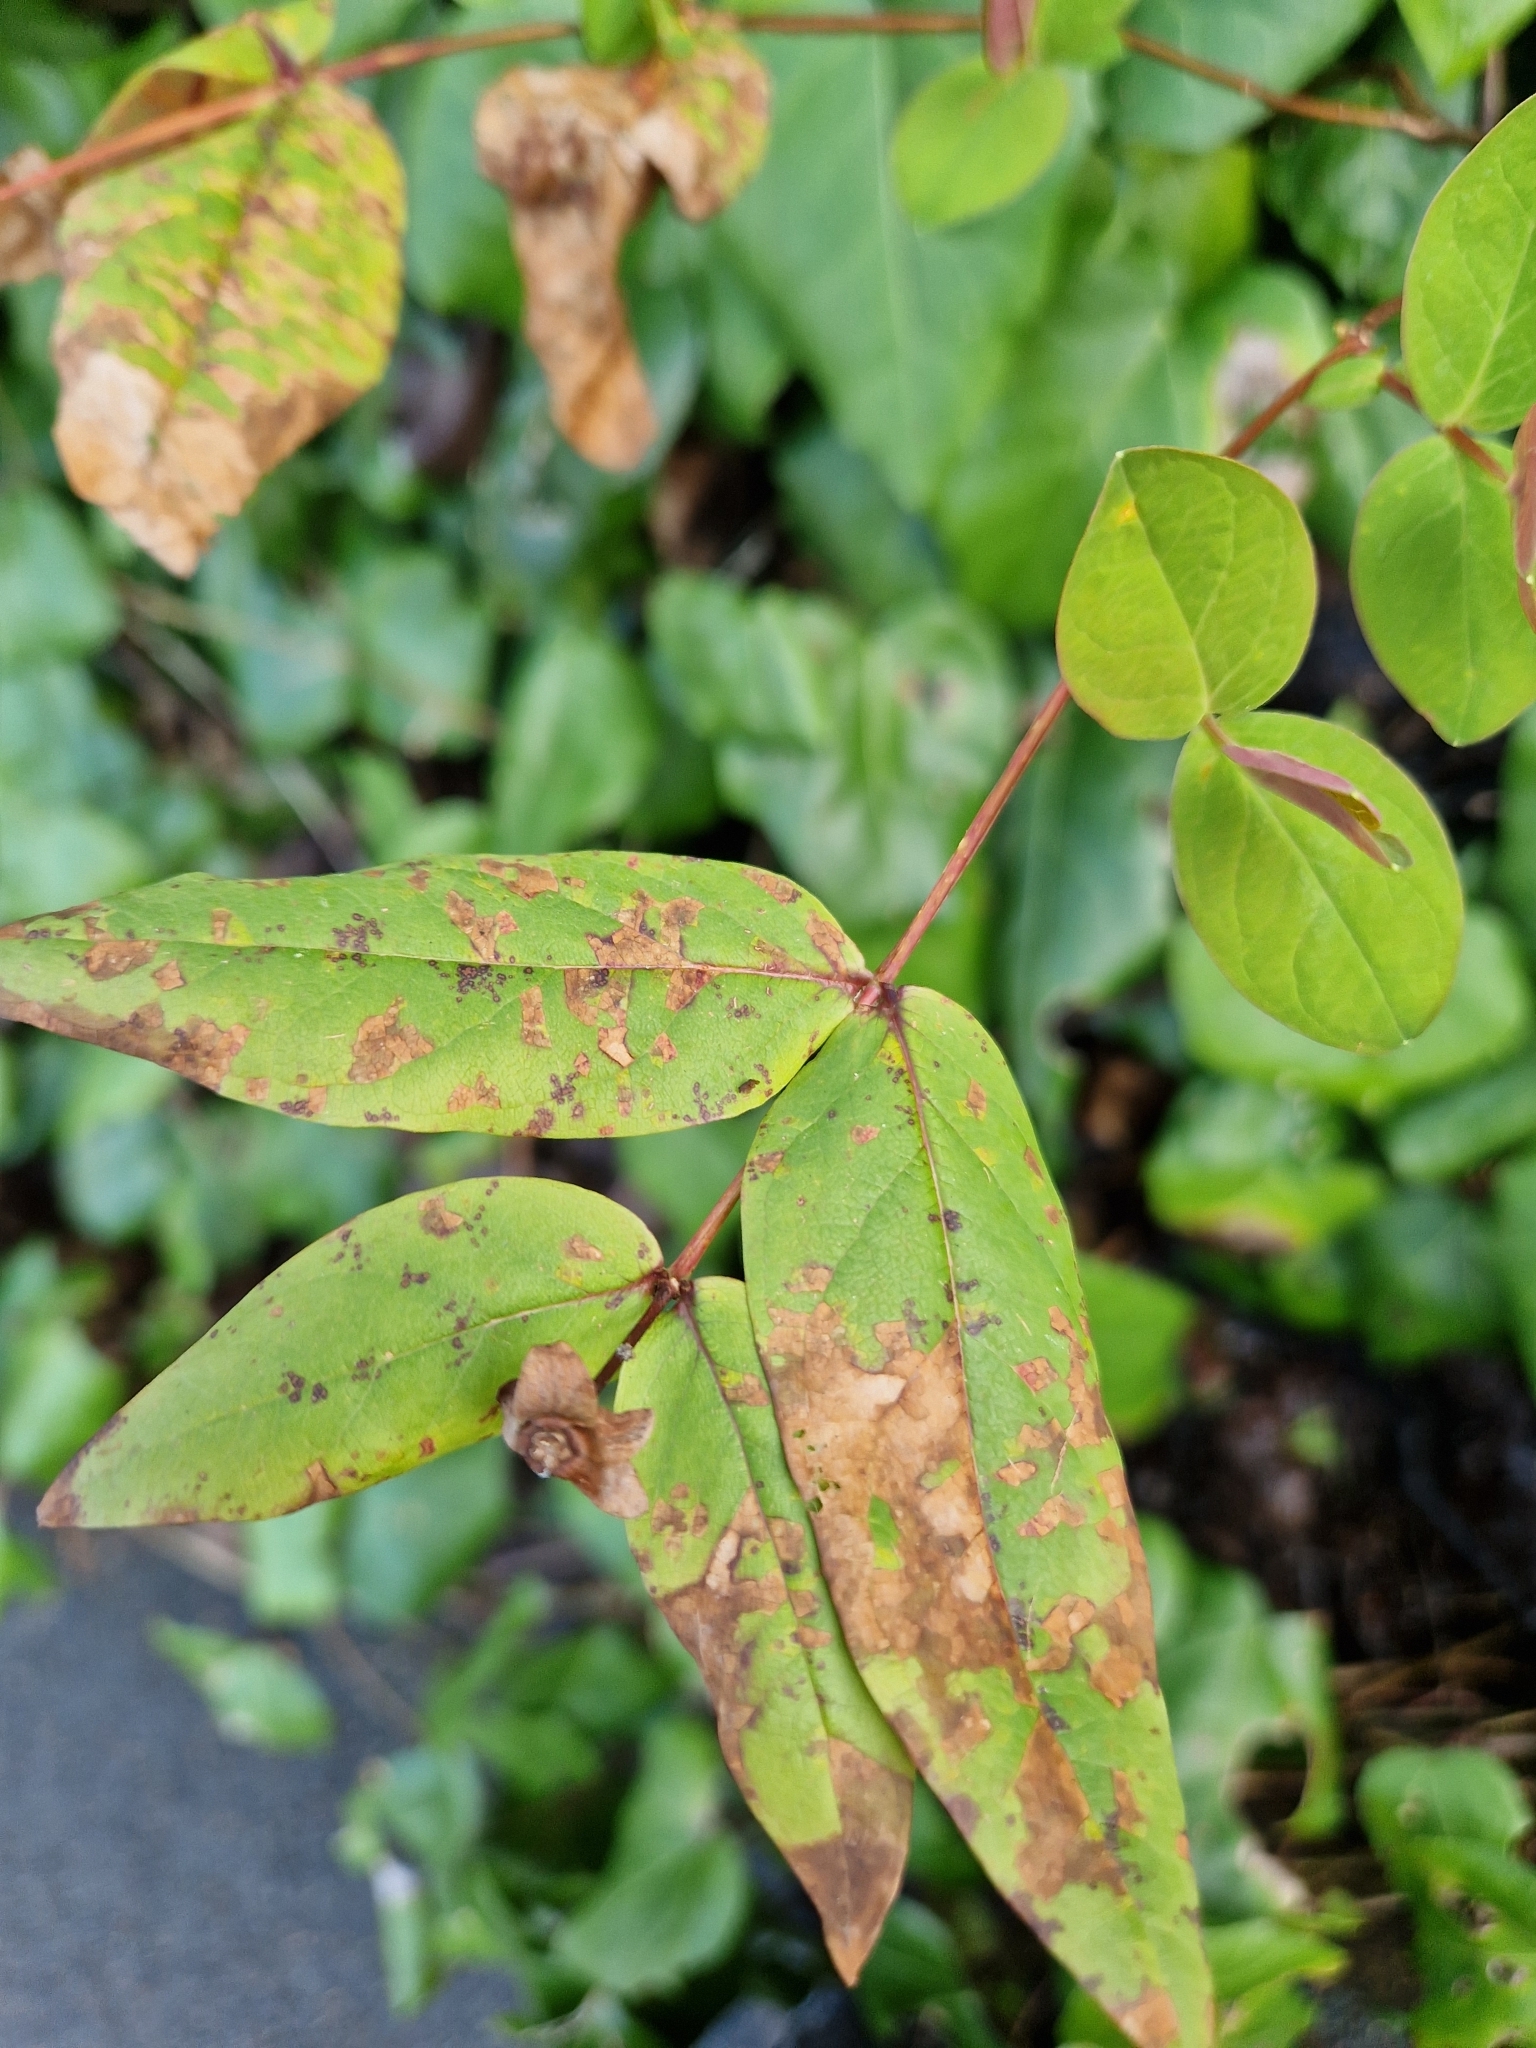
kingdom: Fungi
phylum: Basidiomycota
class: Pucciniomycetes
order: Pucciniales
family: Melampsoraceae
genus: Melampsora
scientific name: Melampsora
